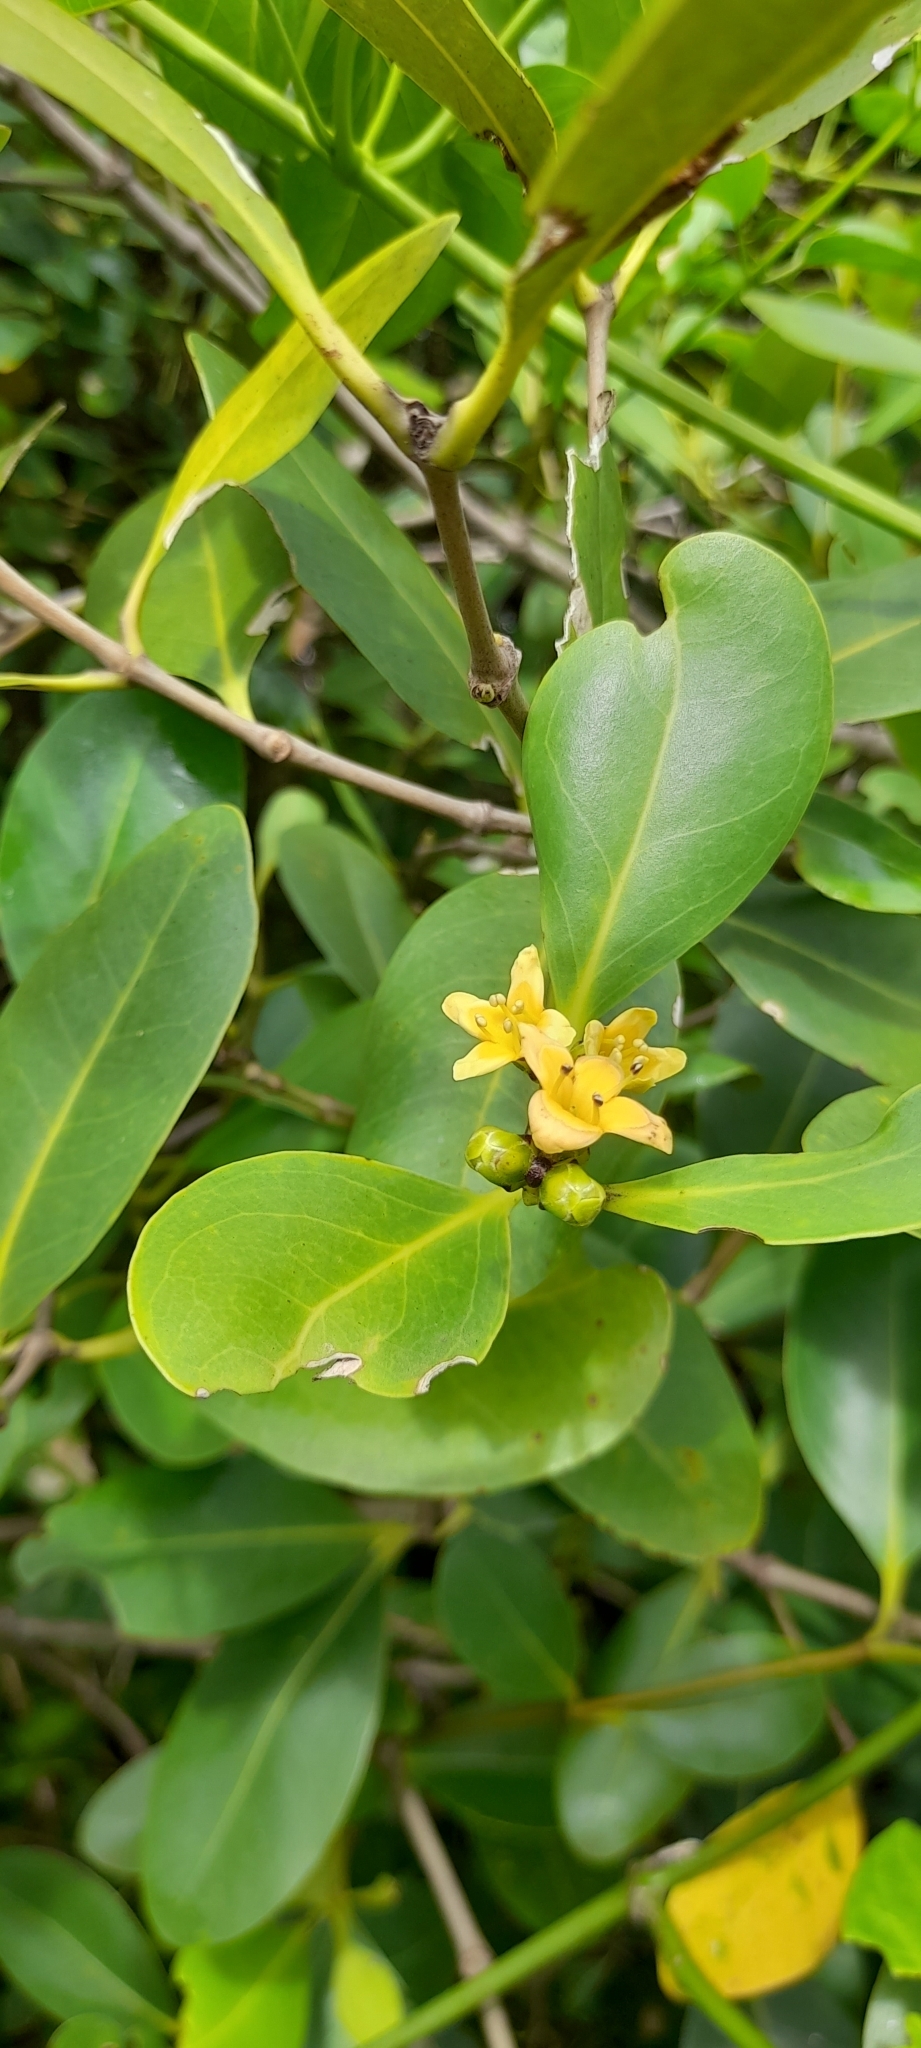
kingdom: Plantae
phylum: Tracheophyta
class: Magnoliopsida
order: Lamiales
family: Acanthaceae
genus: Avicennia
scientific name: Avicennia marina
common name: Gray mangrove
